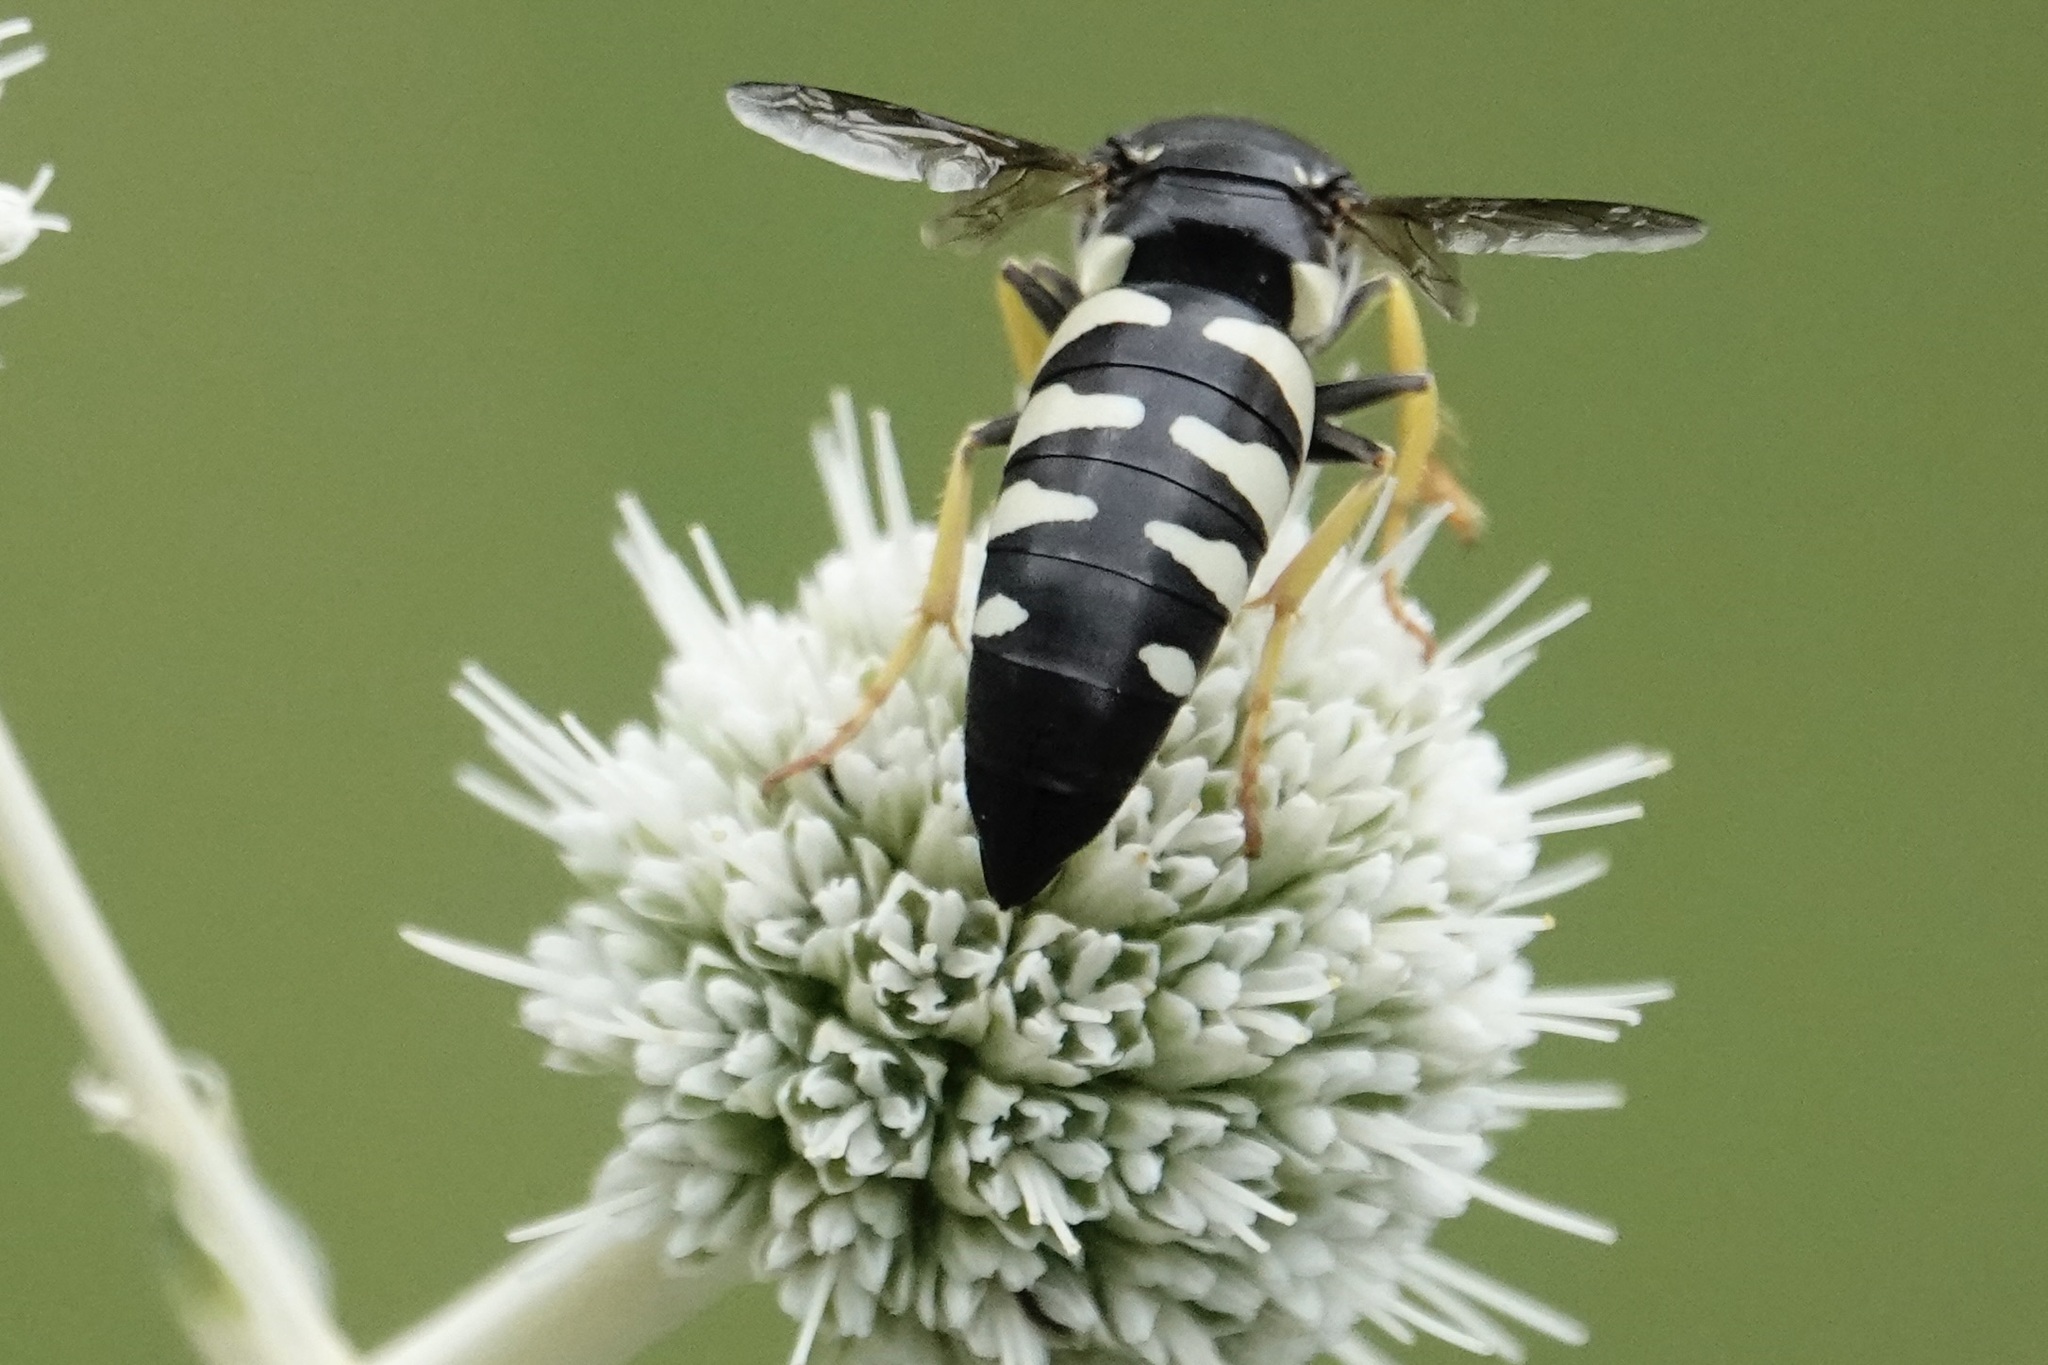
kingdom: Animalia
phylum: Arthropoda
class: Insecta
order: Hymenoptera
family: Crabronidae
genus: Bicyrtes
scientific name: Bicyrtes quadrifasciatus
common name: Four-banded stink bug hunter wasp
